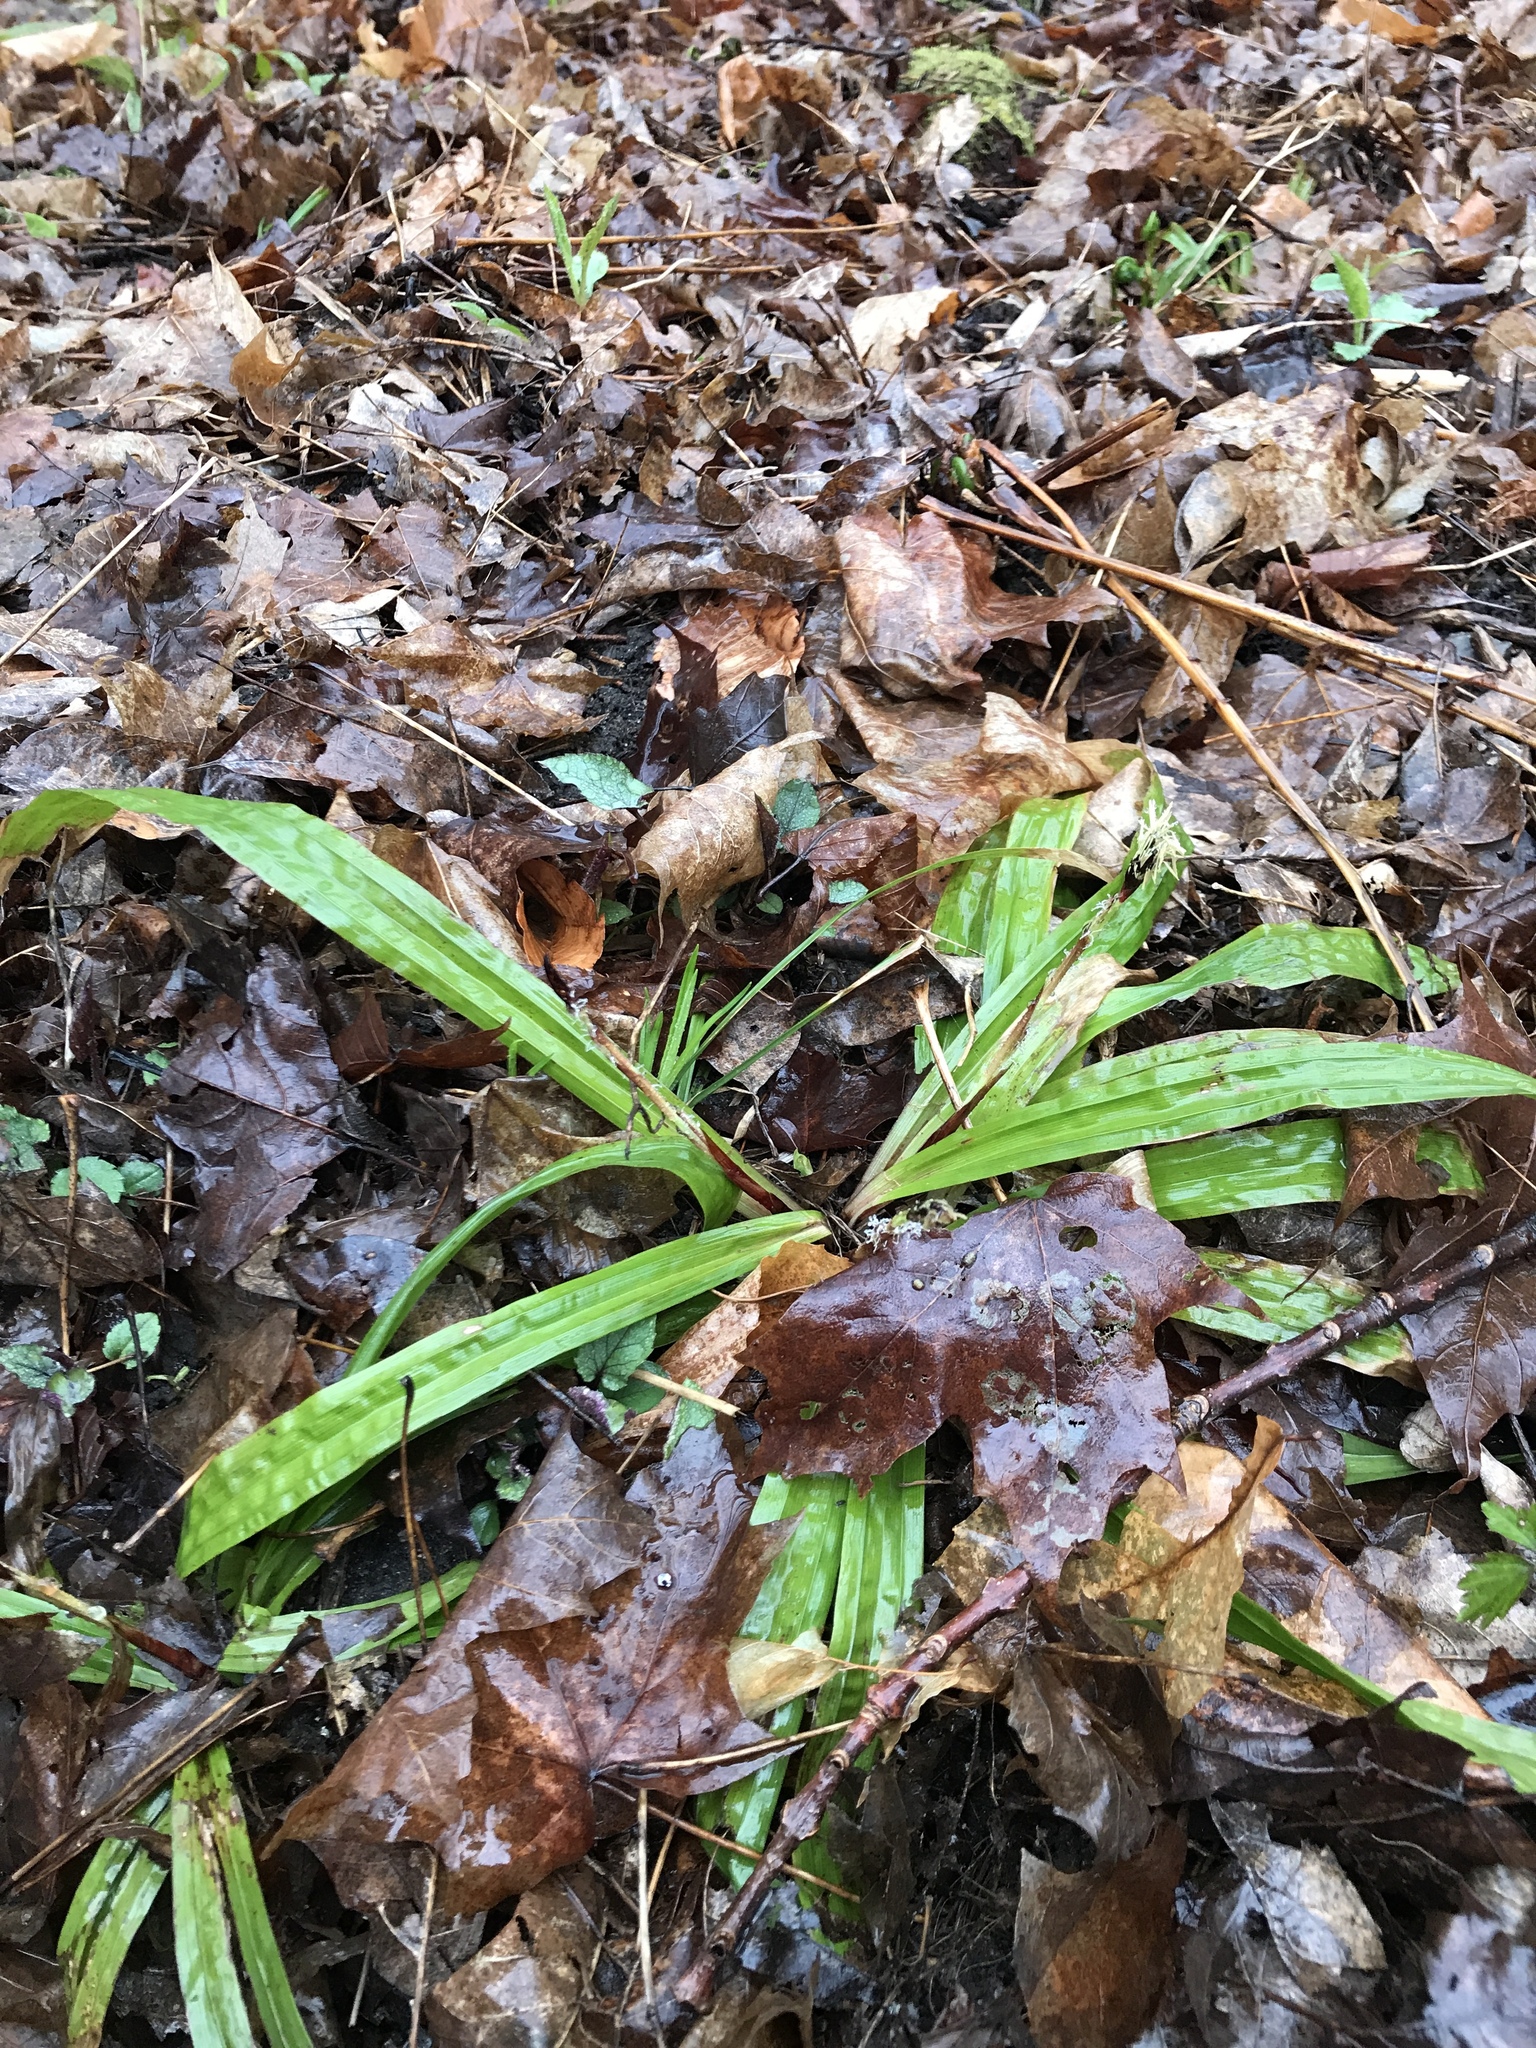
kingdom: Plantae
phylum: Tracheophyta
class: Liliopsida
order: Poales
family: Cyperaceae
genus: Carex
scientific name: Carex plantaginea
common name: Plantain-leaved sedge
